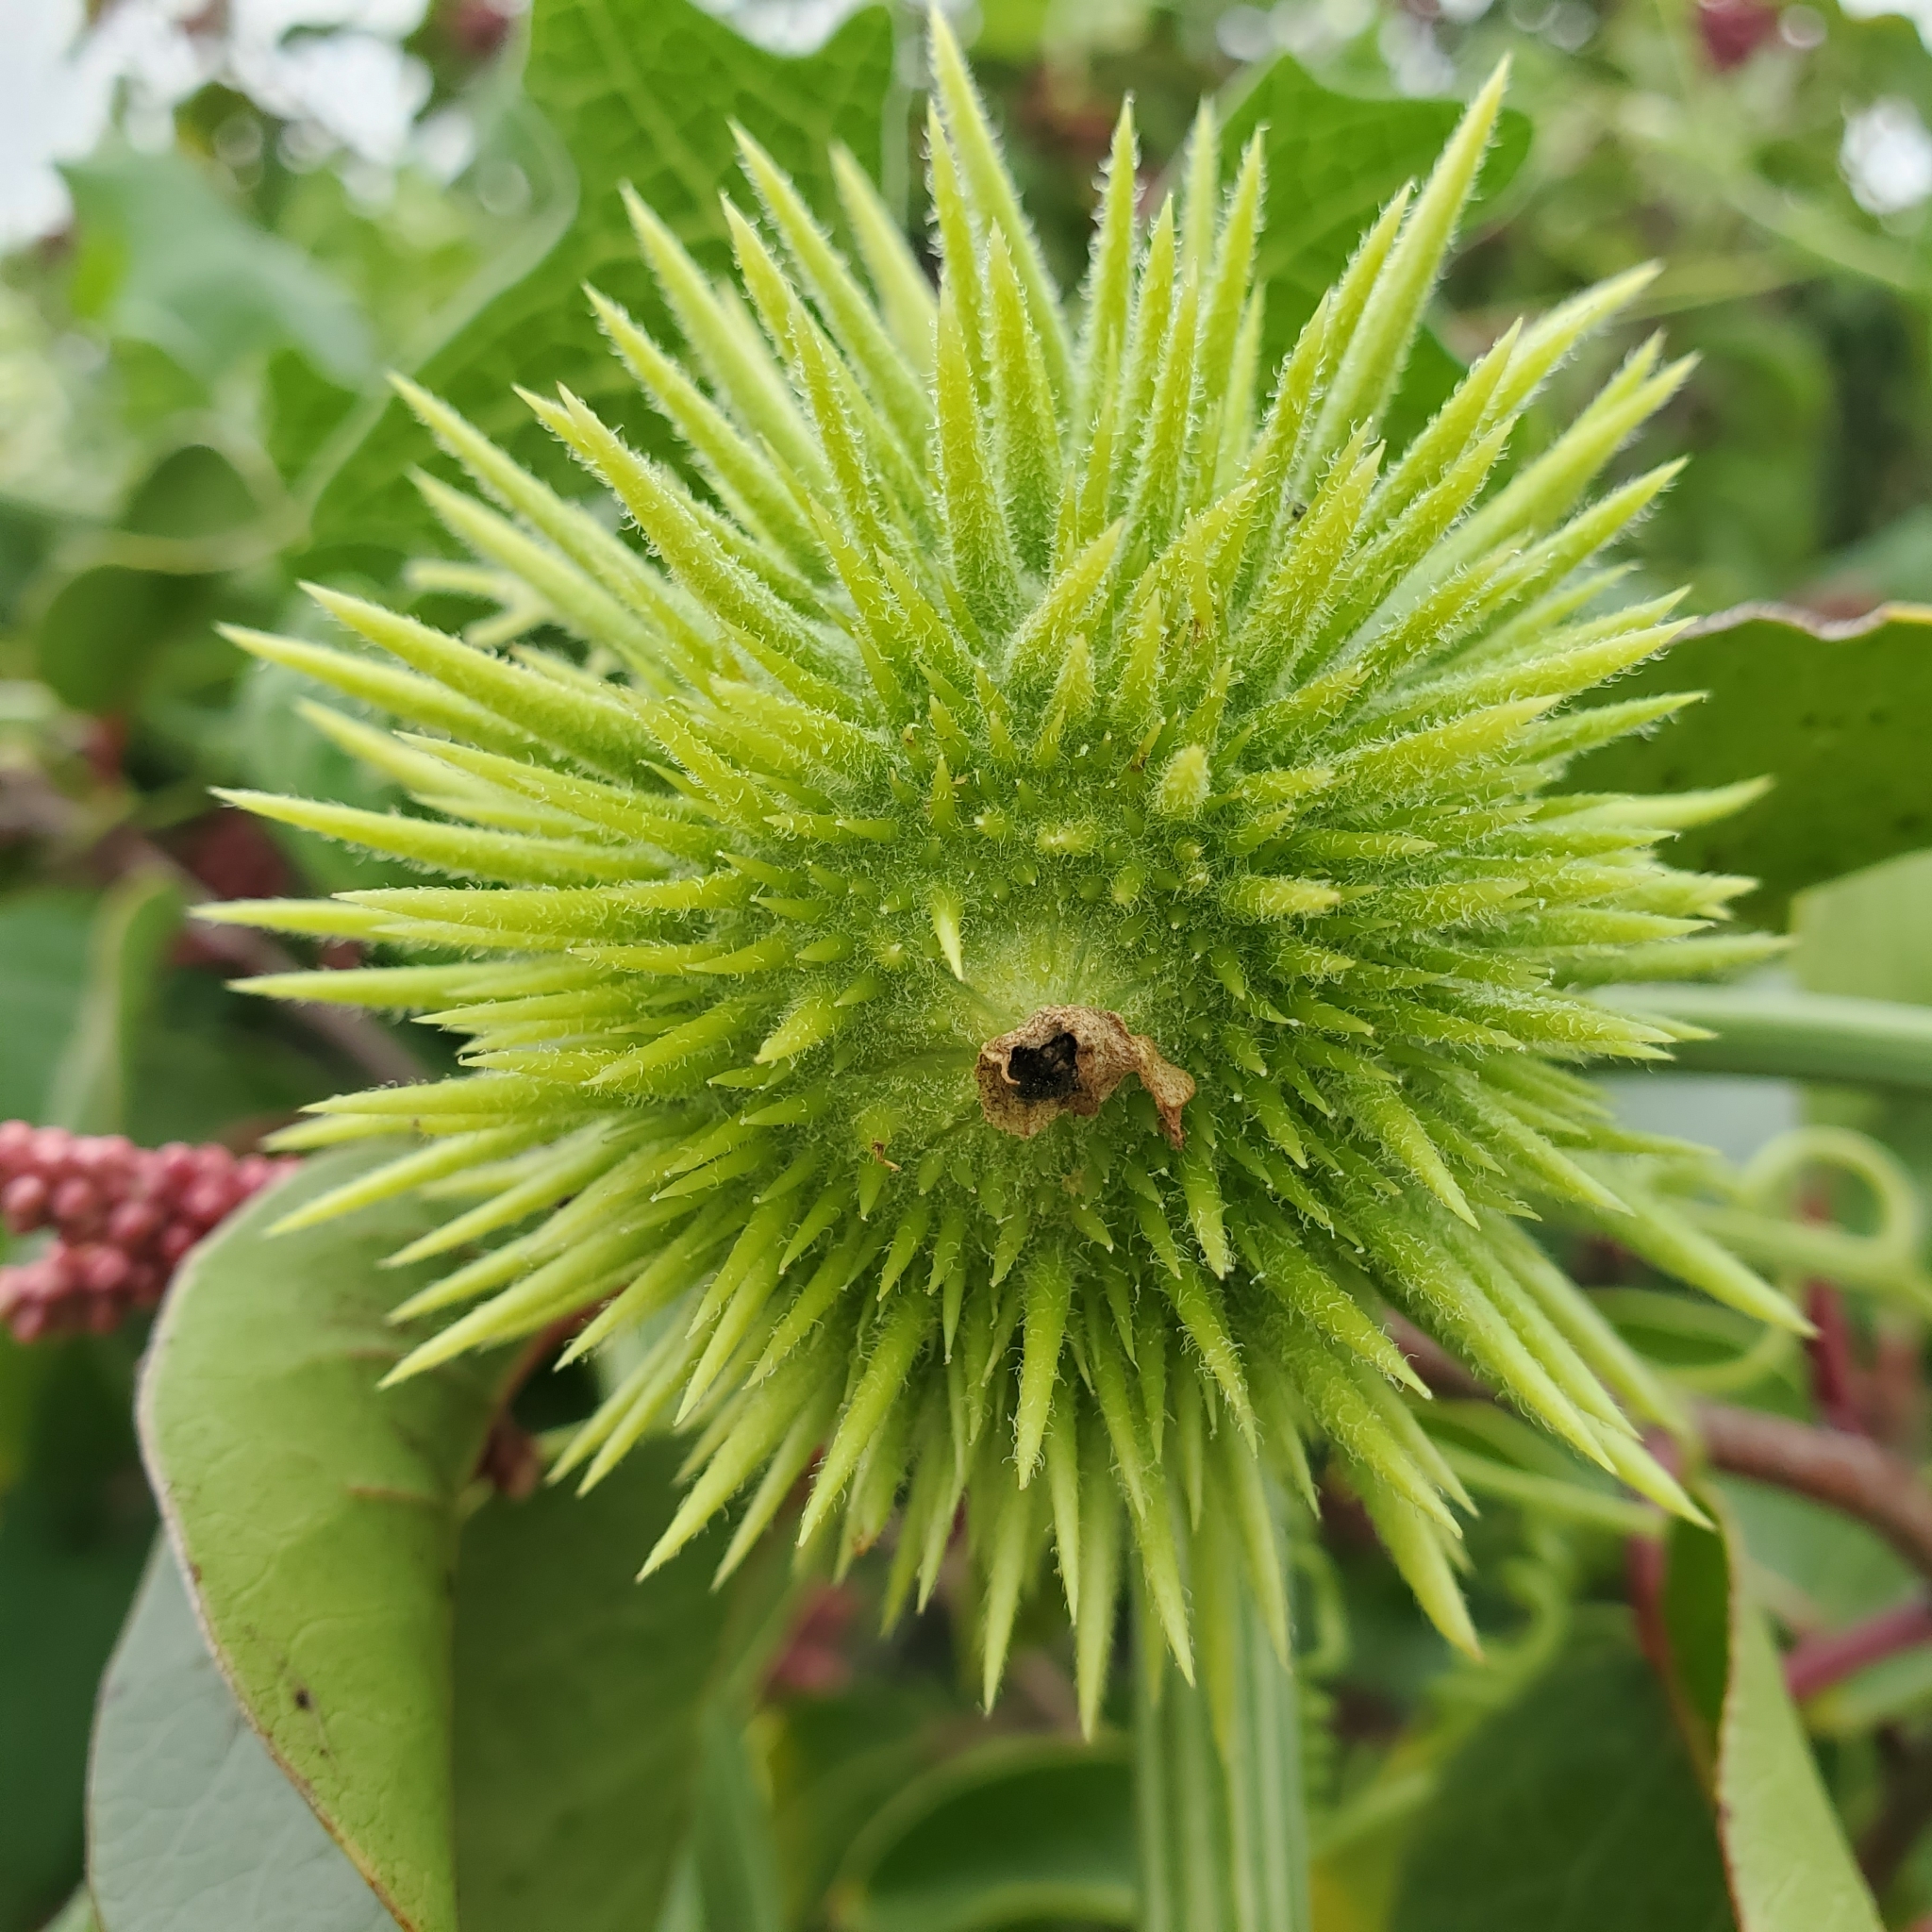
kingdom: Plantae
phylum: Tracheophyta
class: Magnoliopsida
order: Cucurbitales
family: Cucurbitaceae
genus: Marah
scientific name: Marah macrocarpa
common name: Cucamonga manroot
